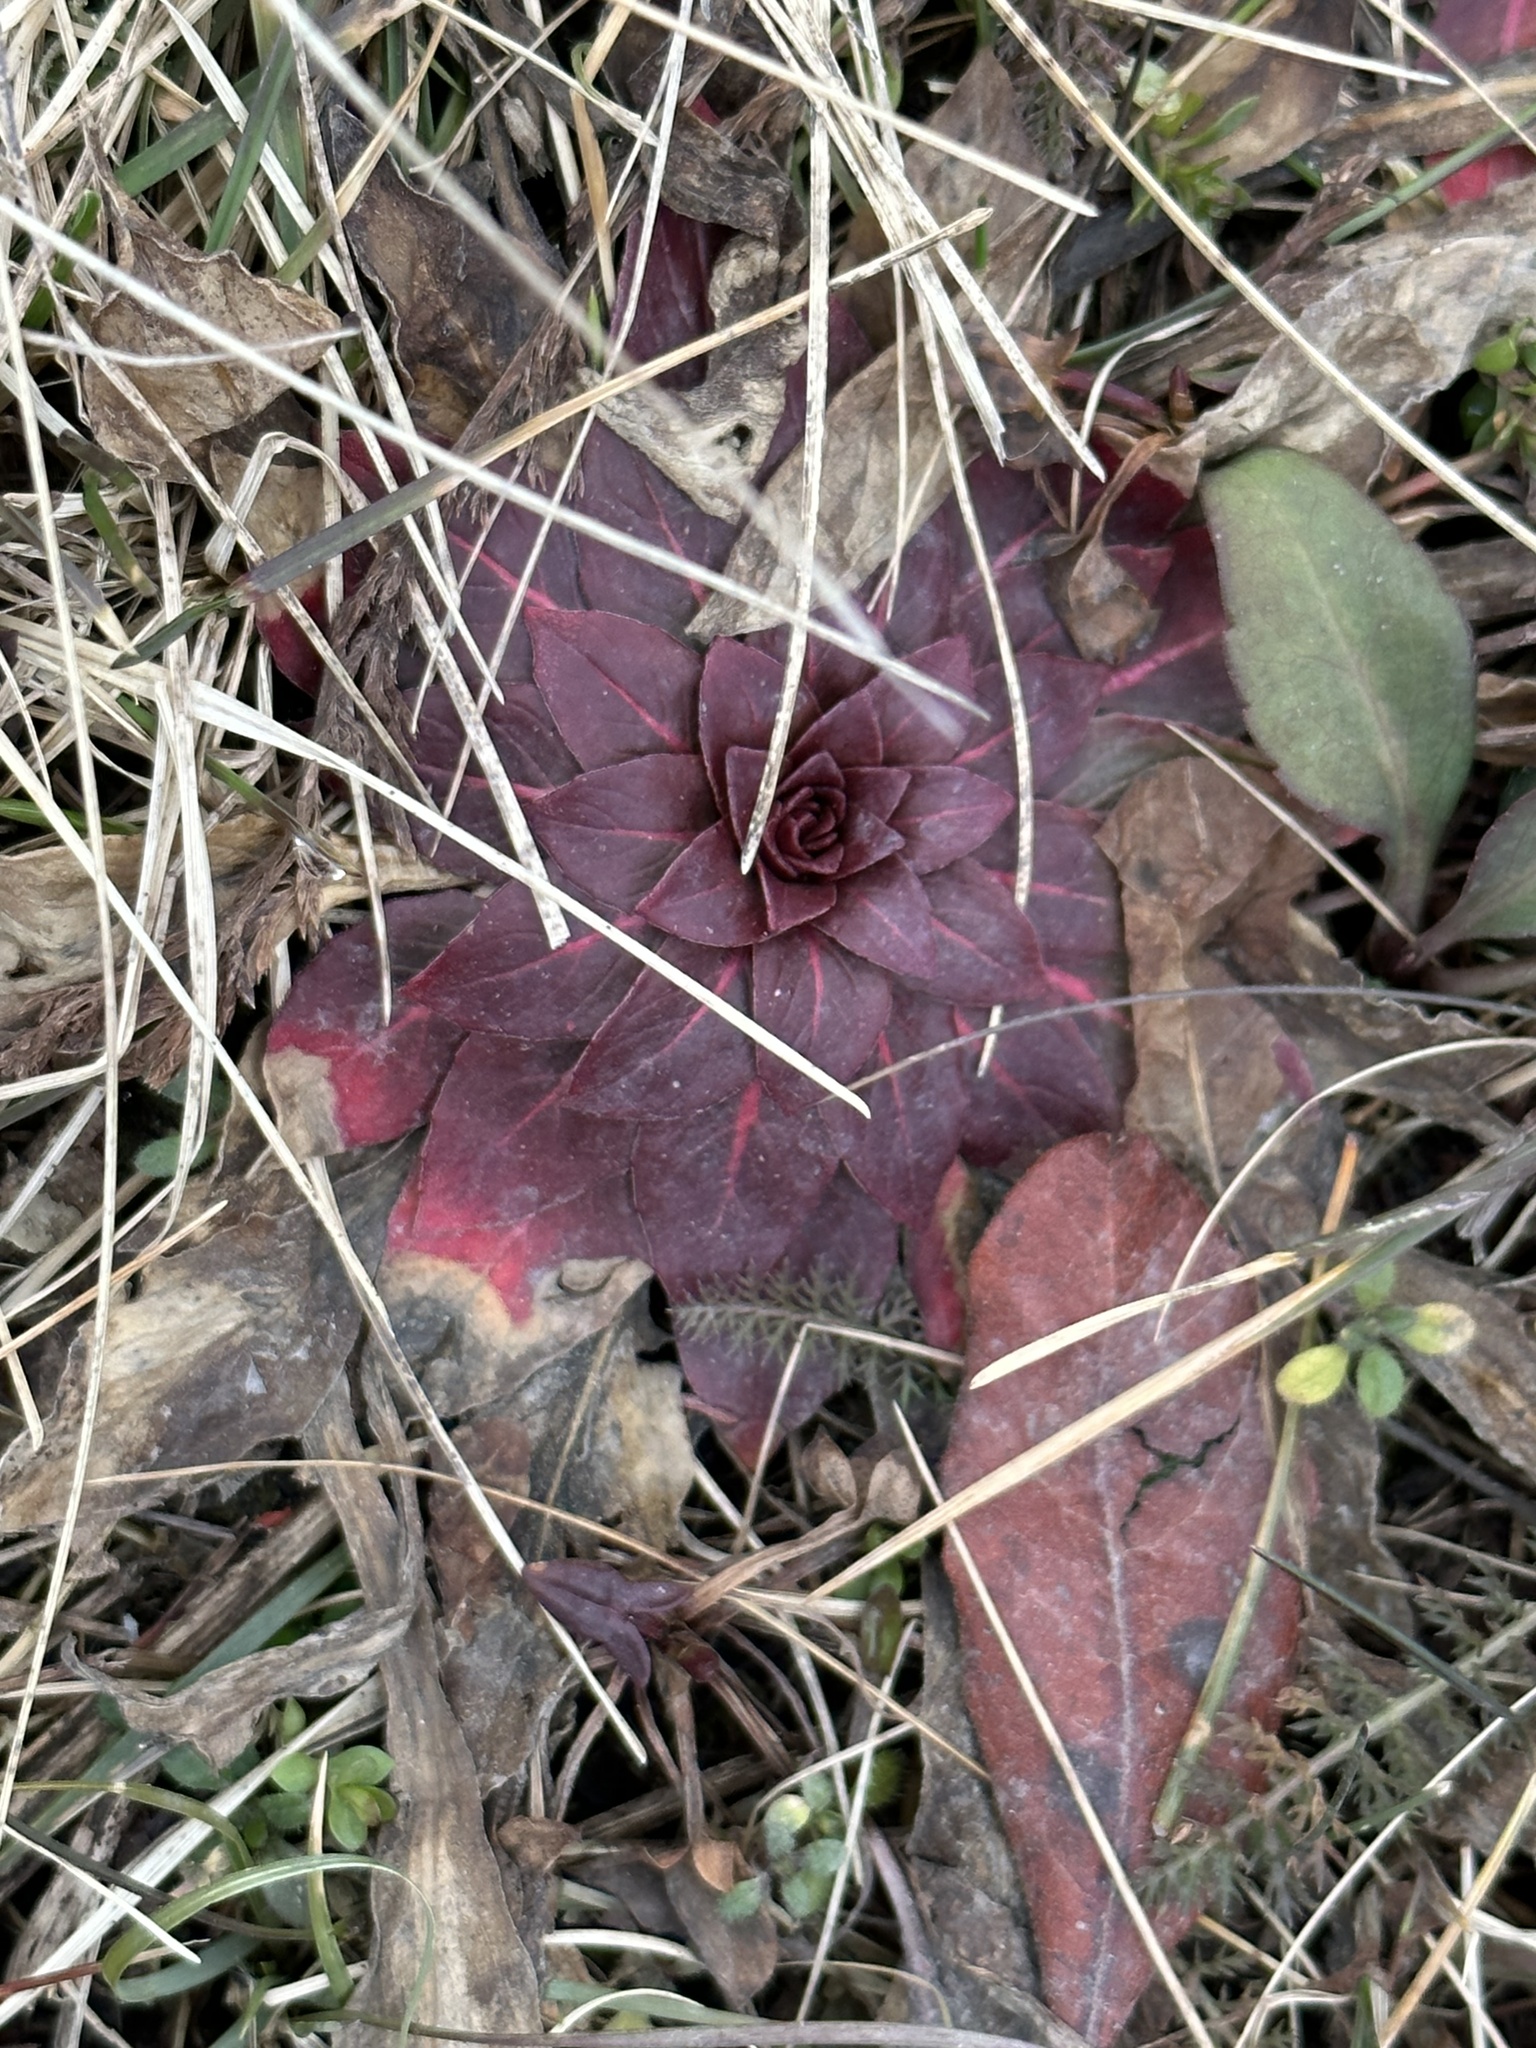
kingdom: Plantae
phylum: Tracheophyta
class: Magnoliopsida
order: Myrtales
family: Onagraceae
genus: Oenothera
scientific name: Oenothera biennis
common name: Common evening-primrose
